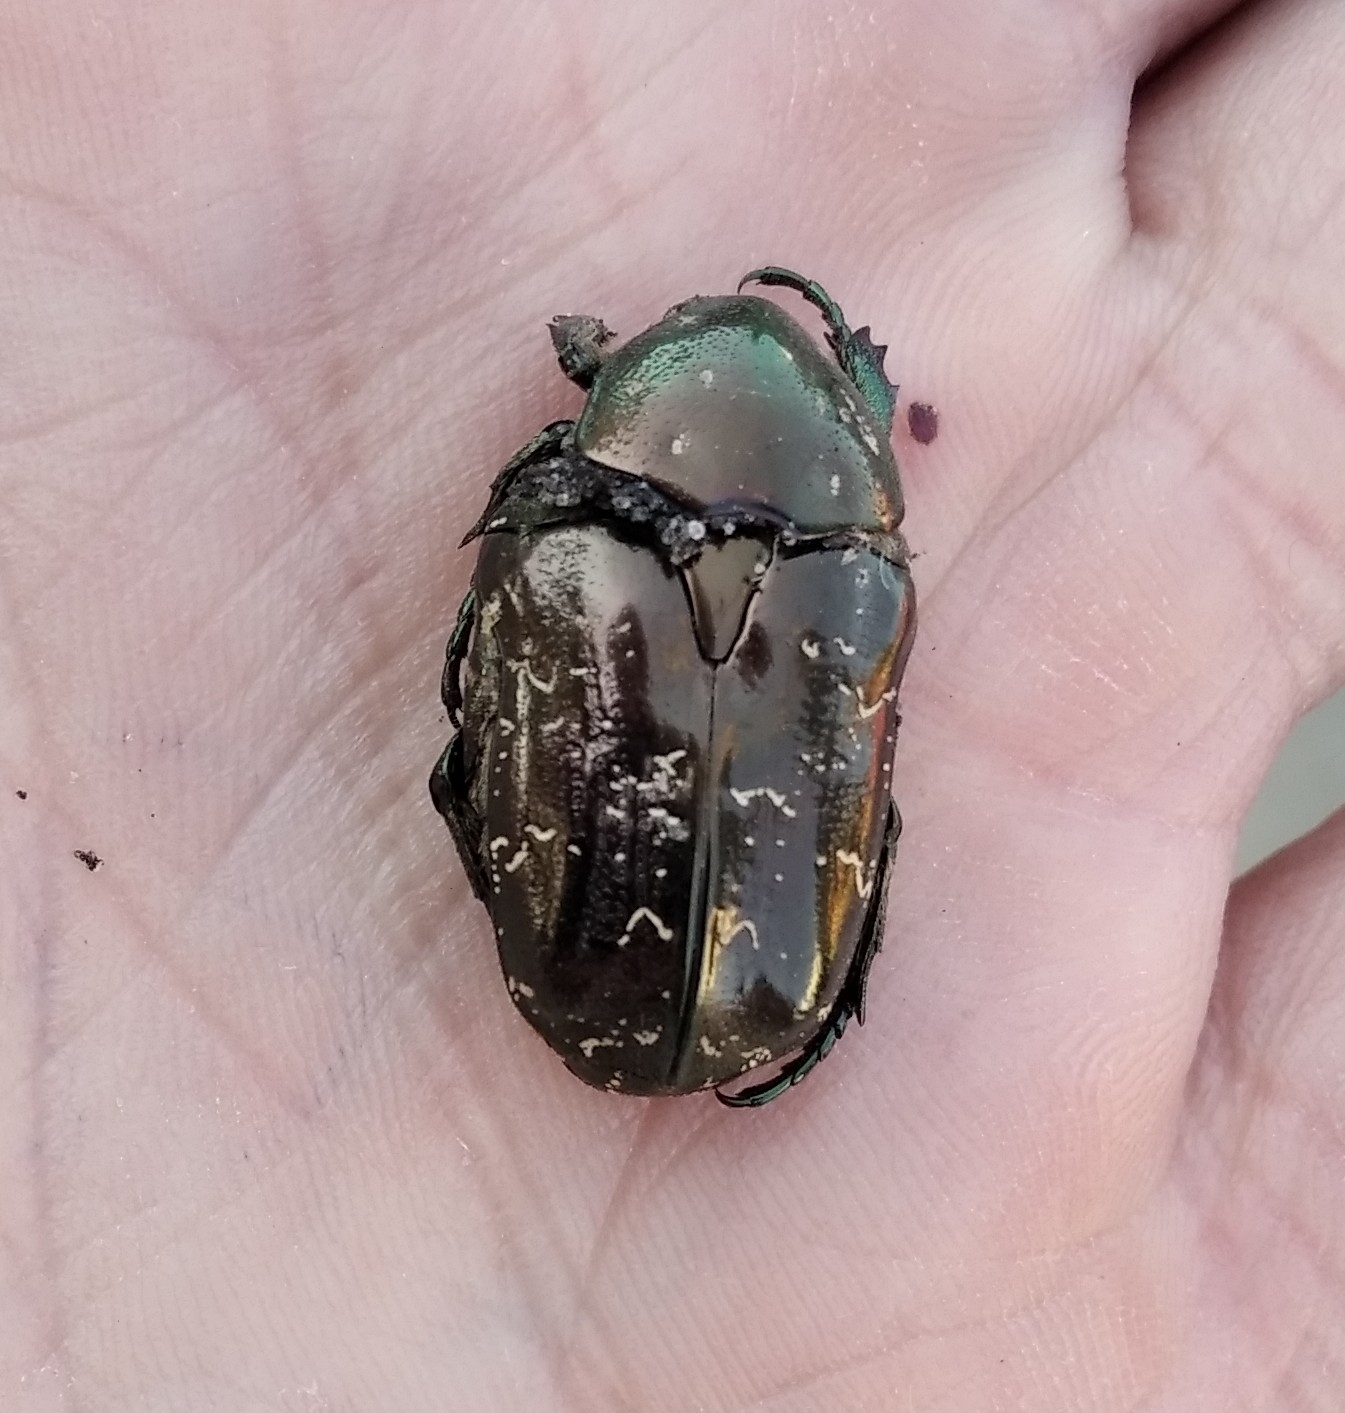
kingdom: Animalia
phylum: Arthropoda
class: Insecta
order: Coleoptera
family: Scarabaeidae
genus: Protaetia
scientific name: Protaetia marmorata
